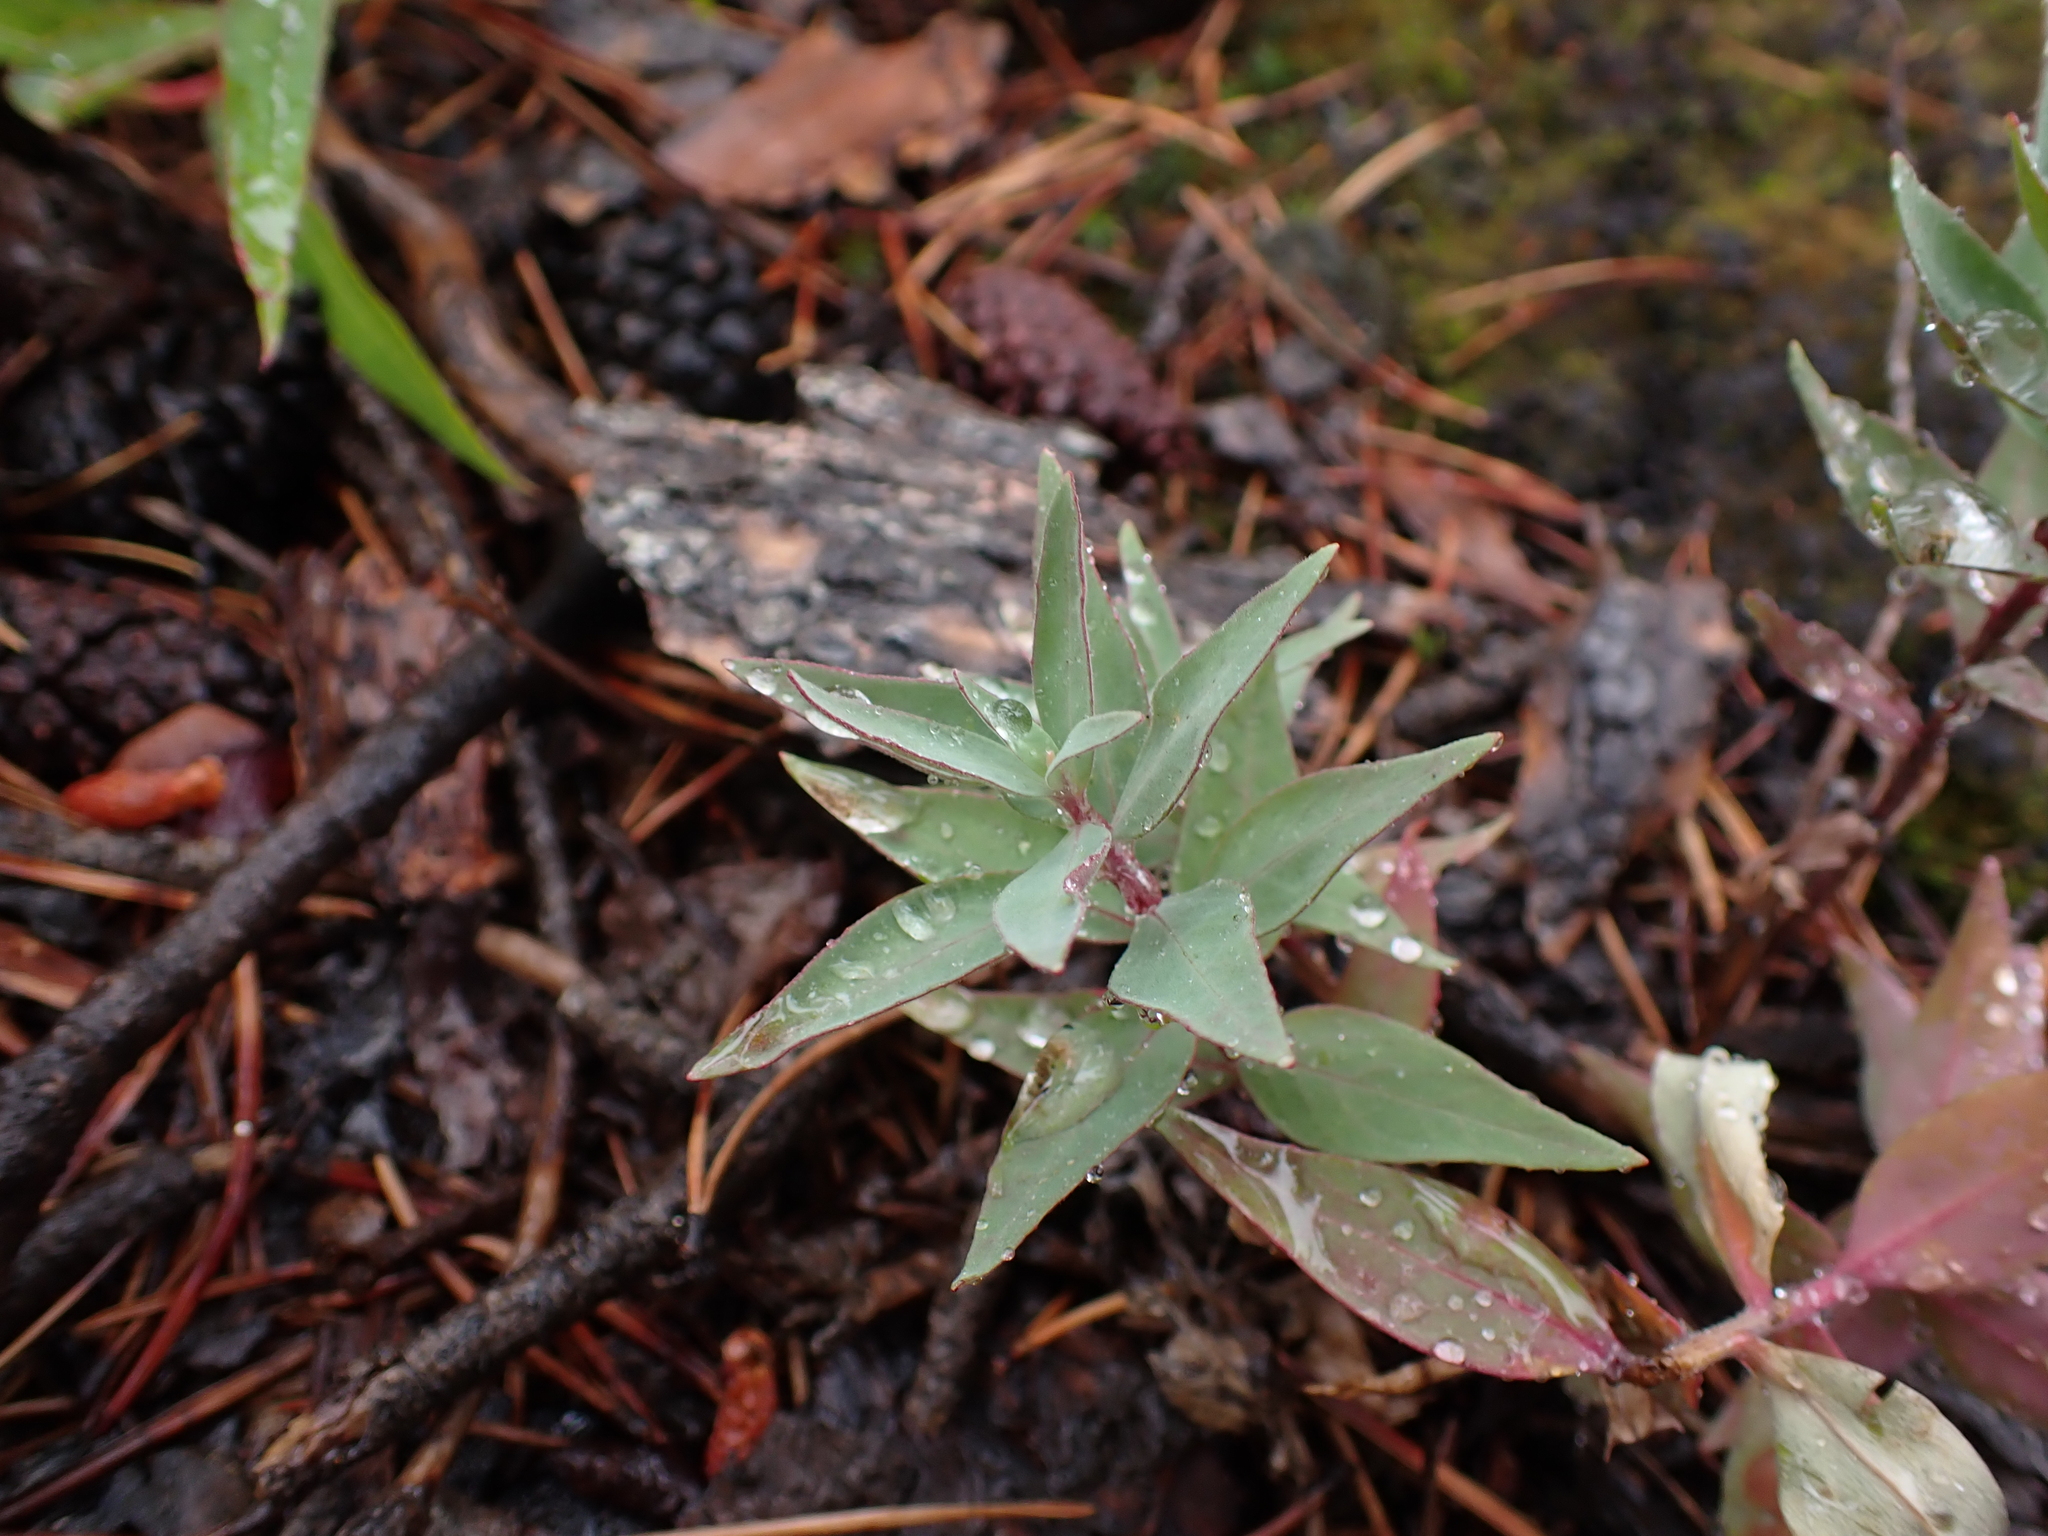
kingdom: Plantae
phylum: Tracheophyta
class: Magnoliopsida
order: Myrtales
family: Onagraceae
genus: Chamaenerion
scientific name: Chamaenerion latifolium
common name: Dwarf fireweed
